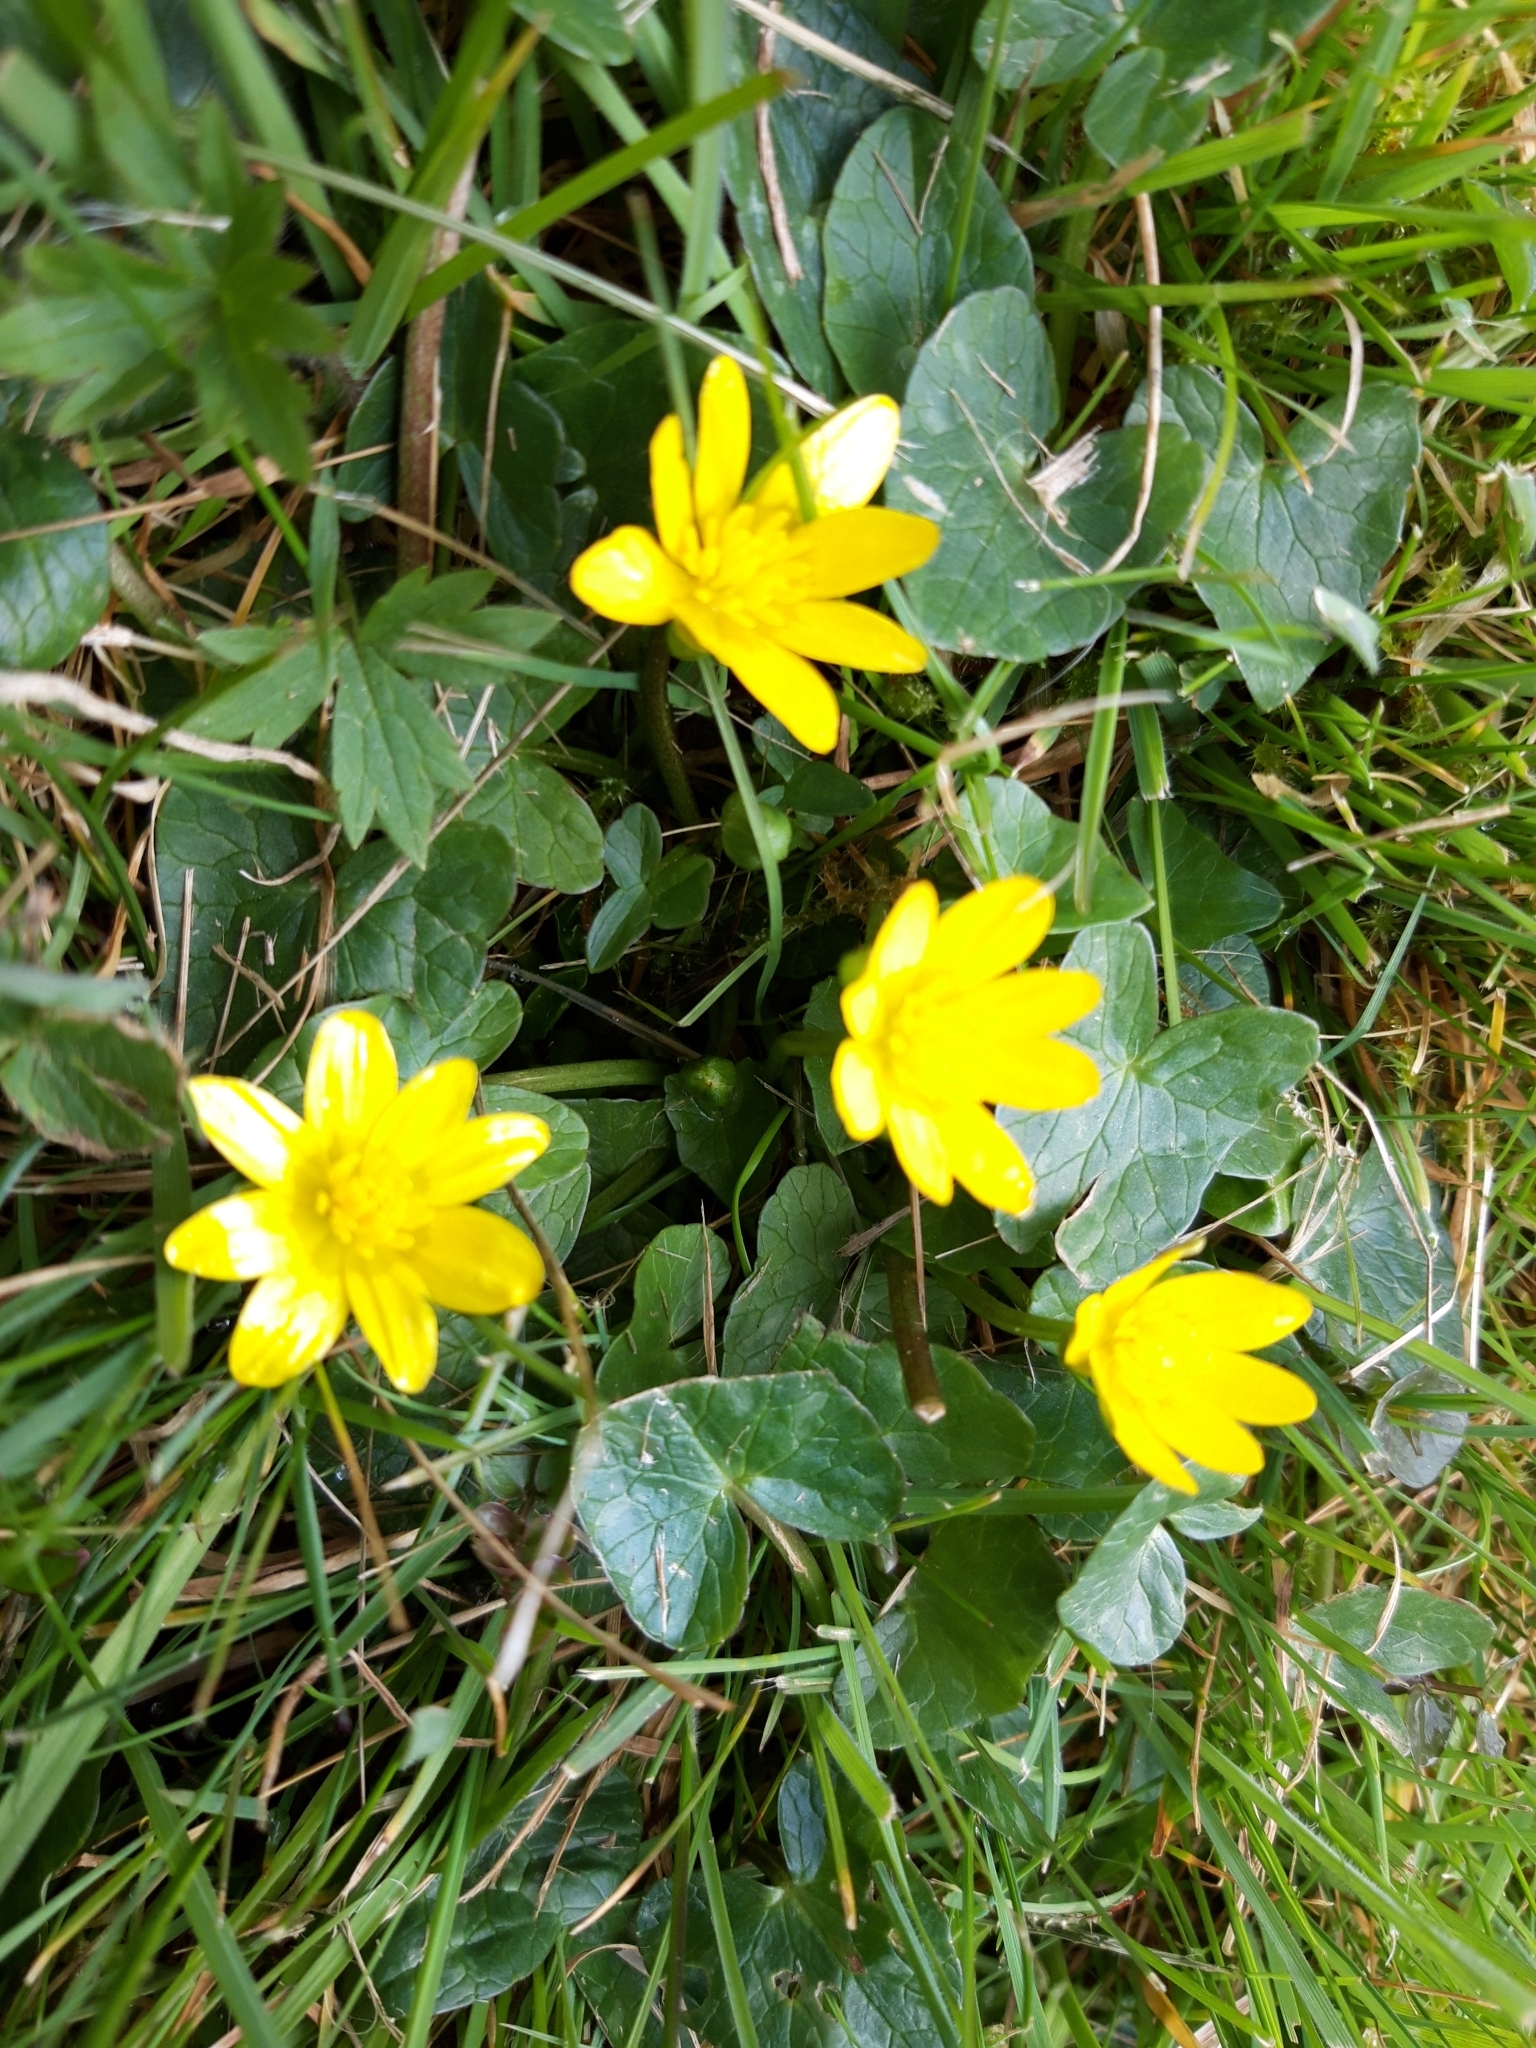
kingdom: Plantae
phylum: Tracheophyta
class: Magnoliopsida
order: Ranunculales
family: Ranunculaceae
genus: Ficaria
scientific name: Ficaria verna
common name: Lesser celandine
